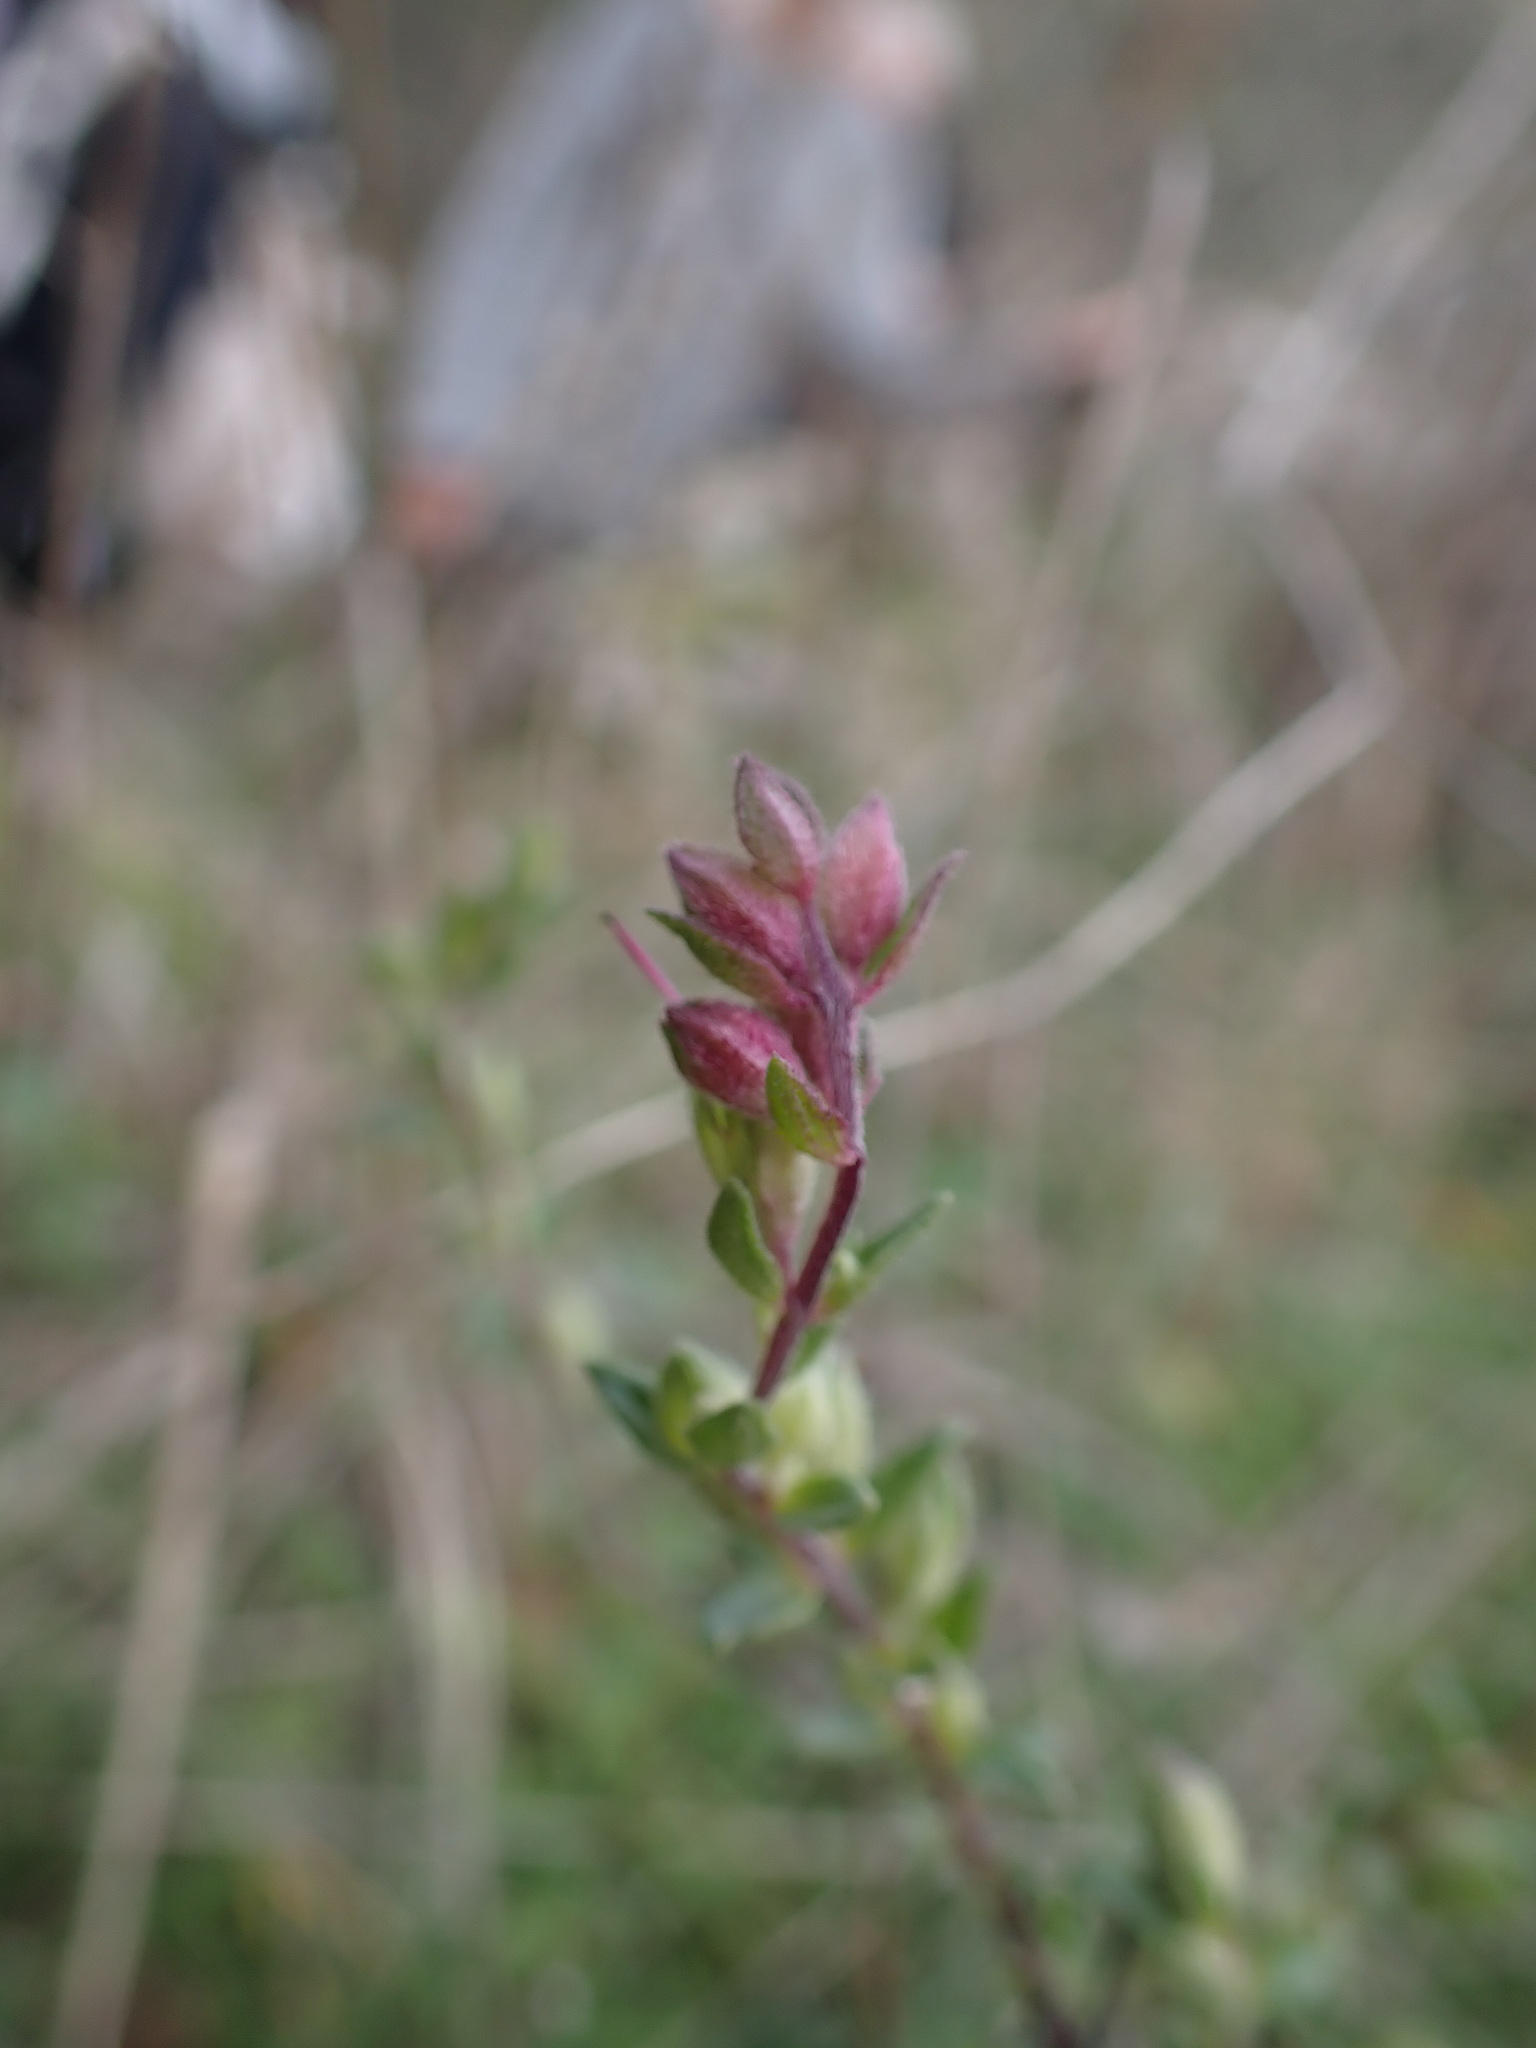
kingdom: Plantae
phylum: Tracheophyta
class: Magnoliopsida
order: Lamiales
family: Orobanchaceae
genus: Odontites
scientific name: Odontites vulgaris
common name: Broomrape
